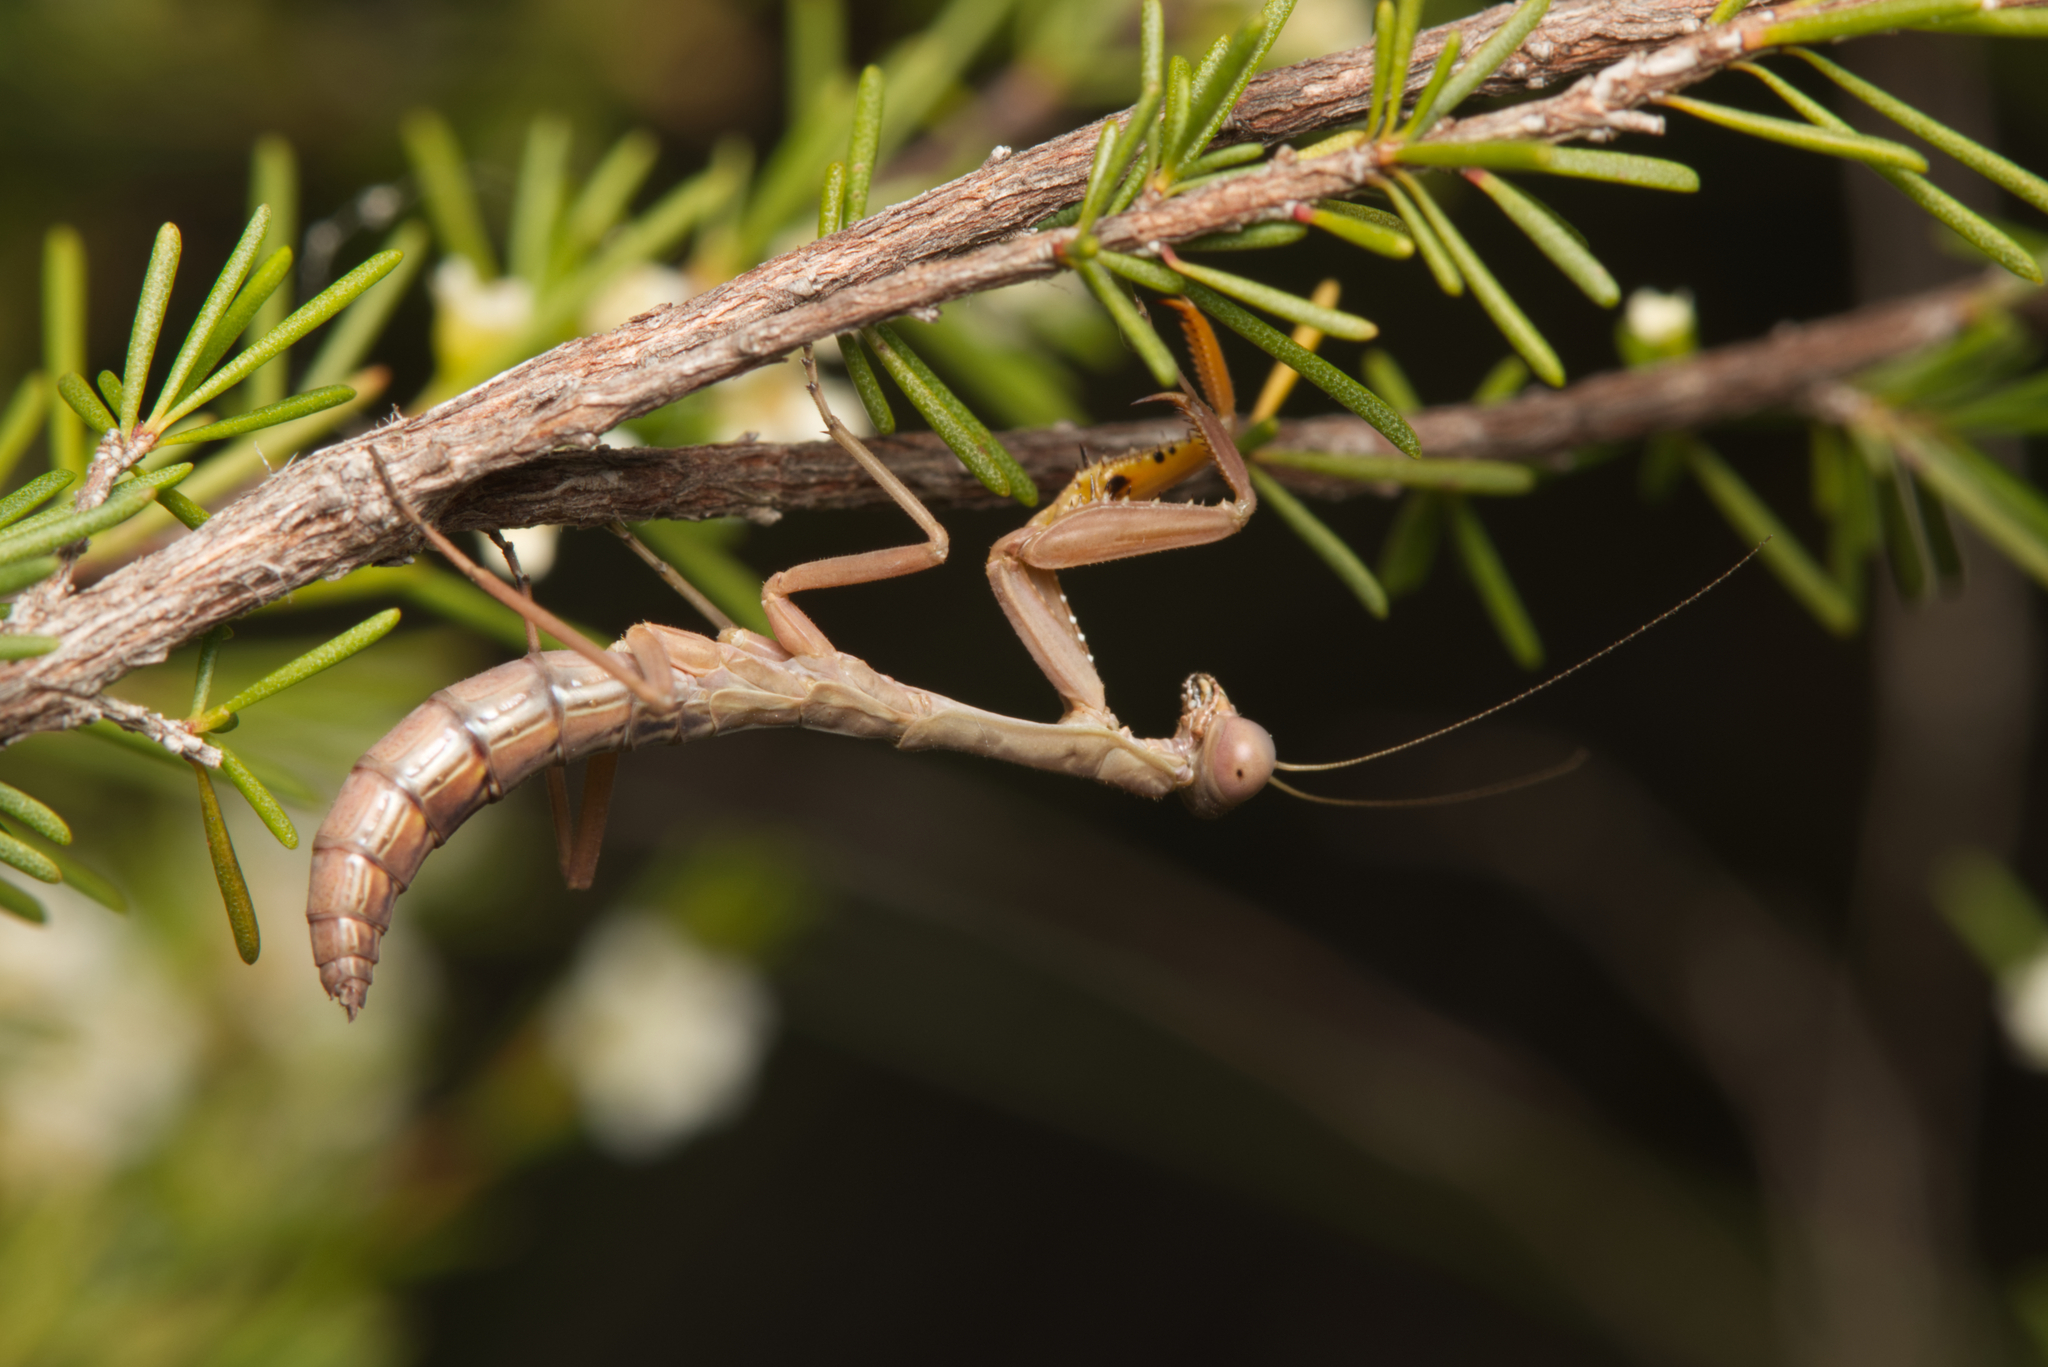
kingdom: Animalia
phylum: Arthropoda
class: Insecta
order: Mantodea
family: Mantidae
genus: Sphodropoda
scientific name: Sphodropoda tristis
